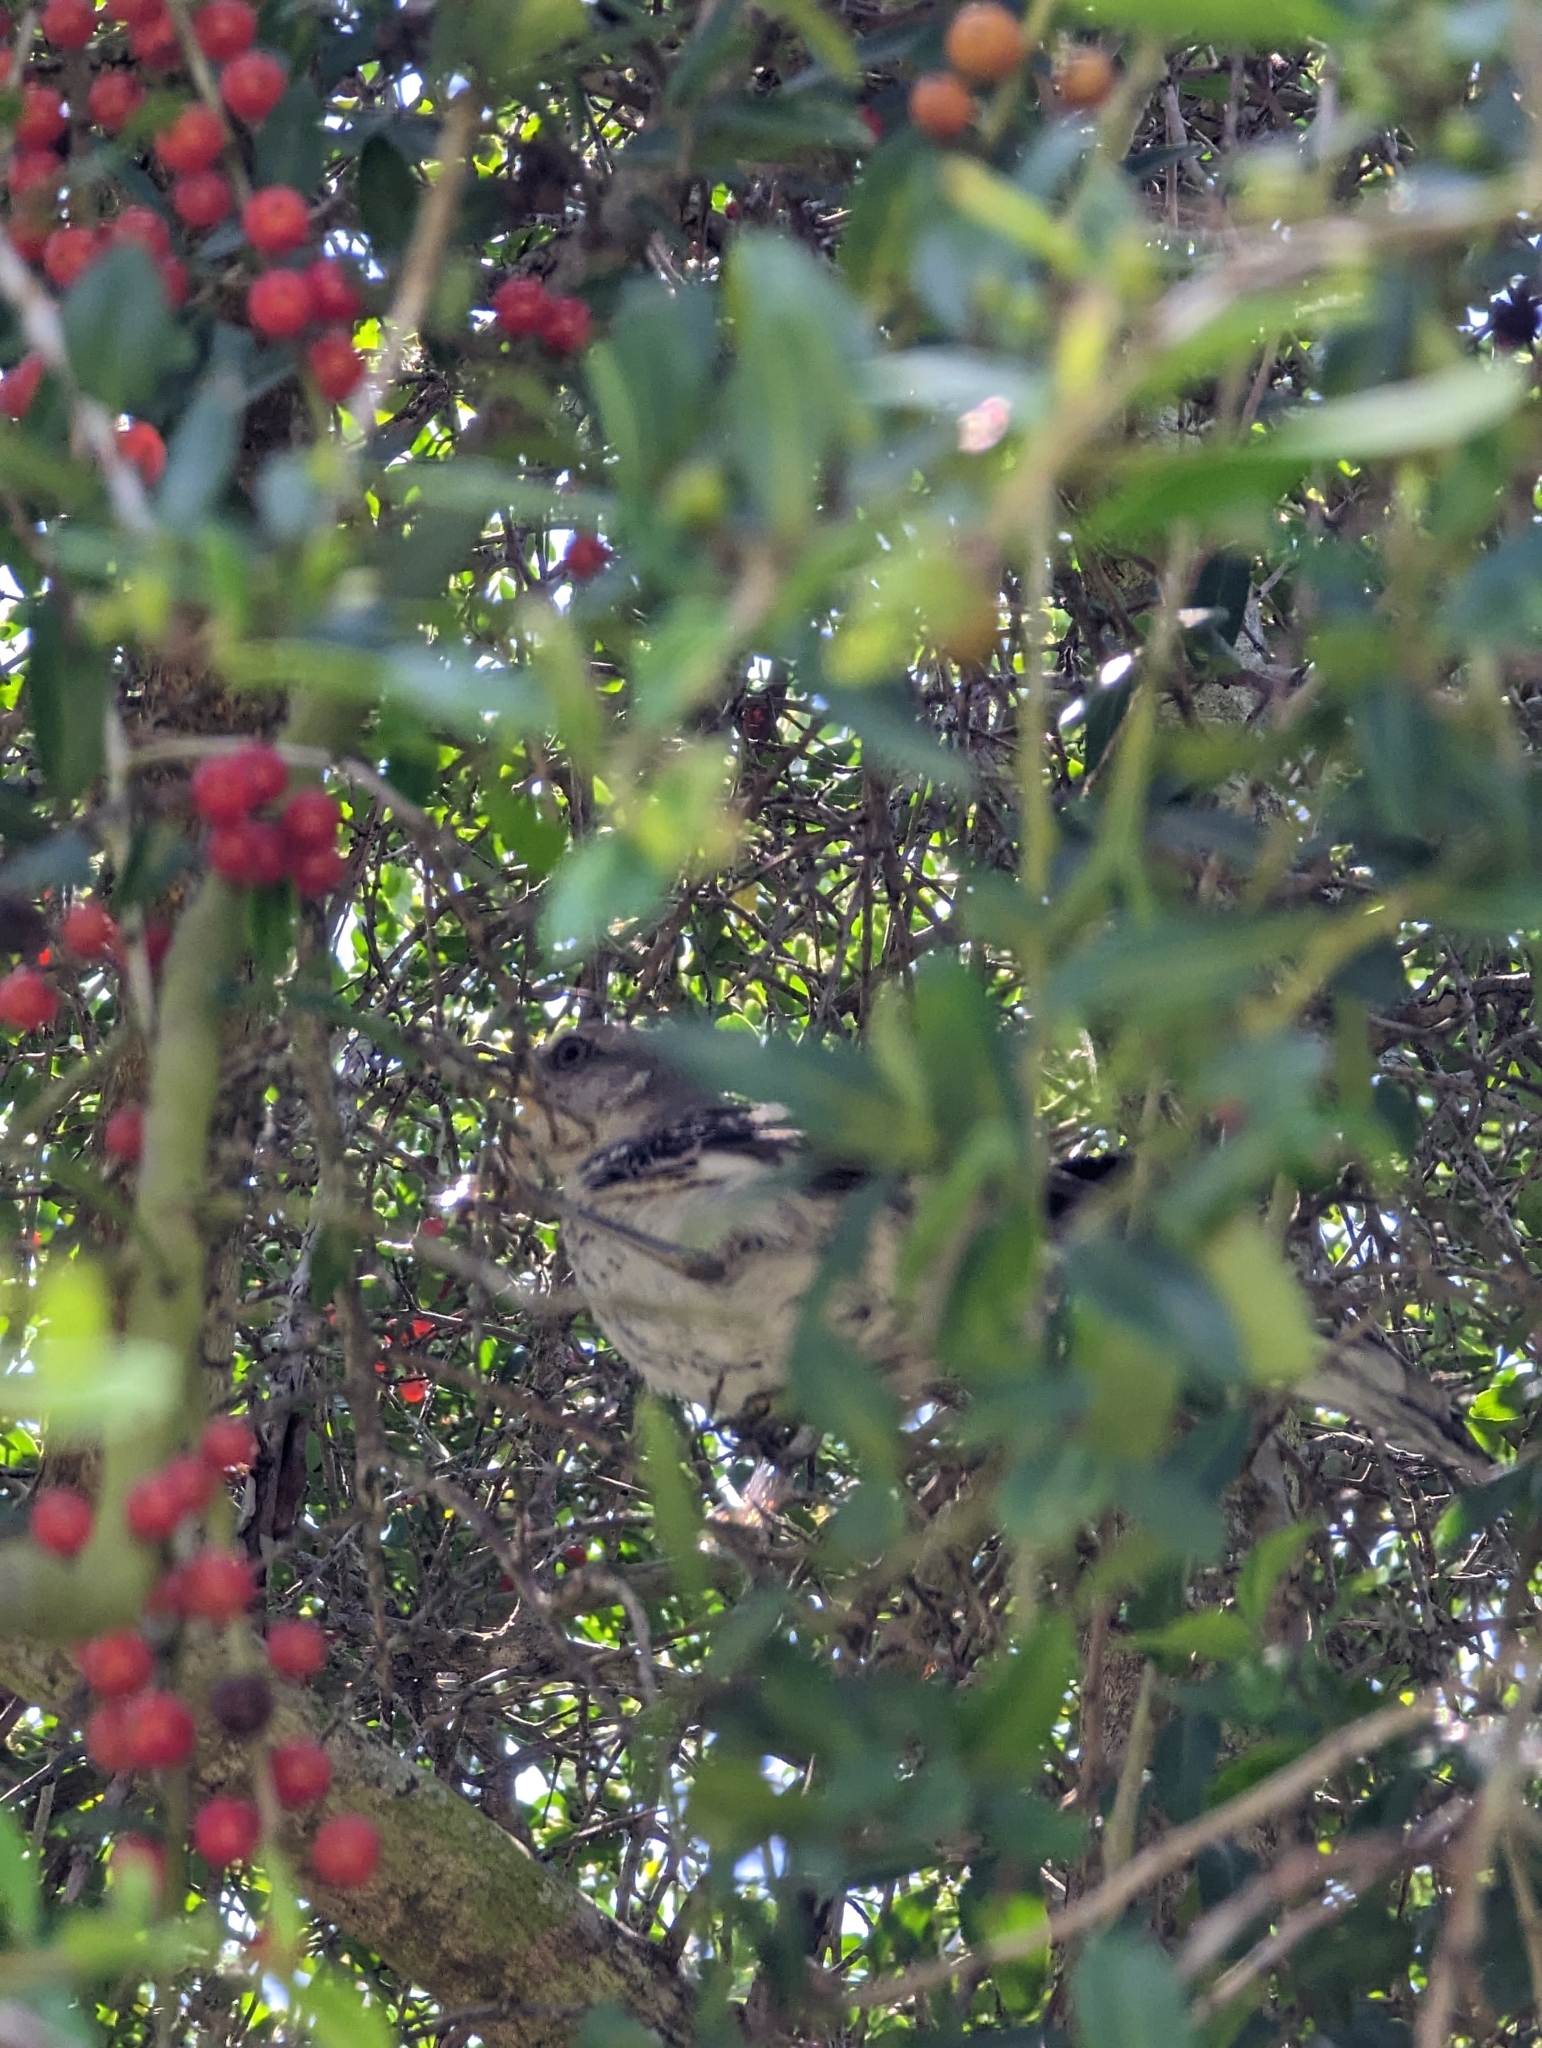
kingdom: Animalia
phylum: Chordata
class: Aves
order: Passeriformes
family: Mimidae
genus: Mimus
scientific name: Mimus polyglottos
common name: Northern mockingbird
